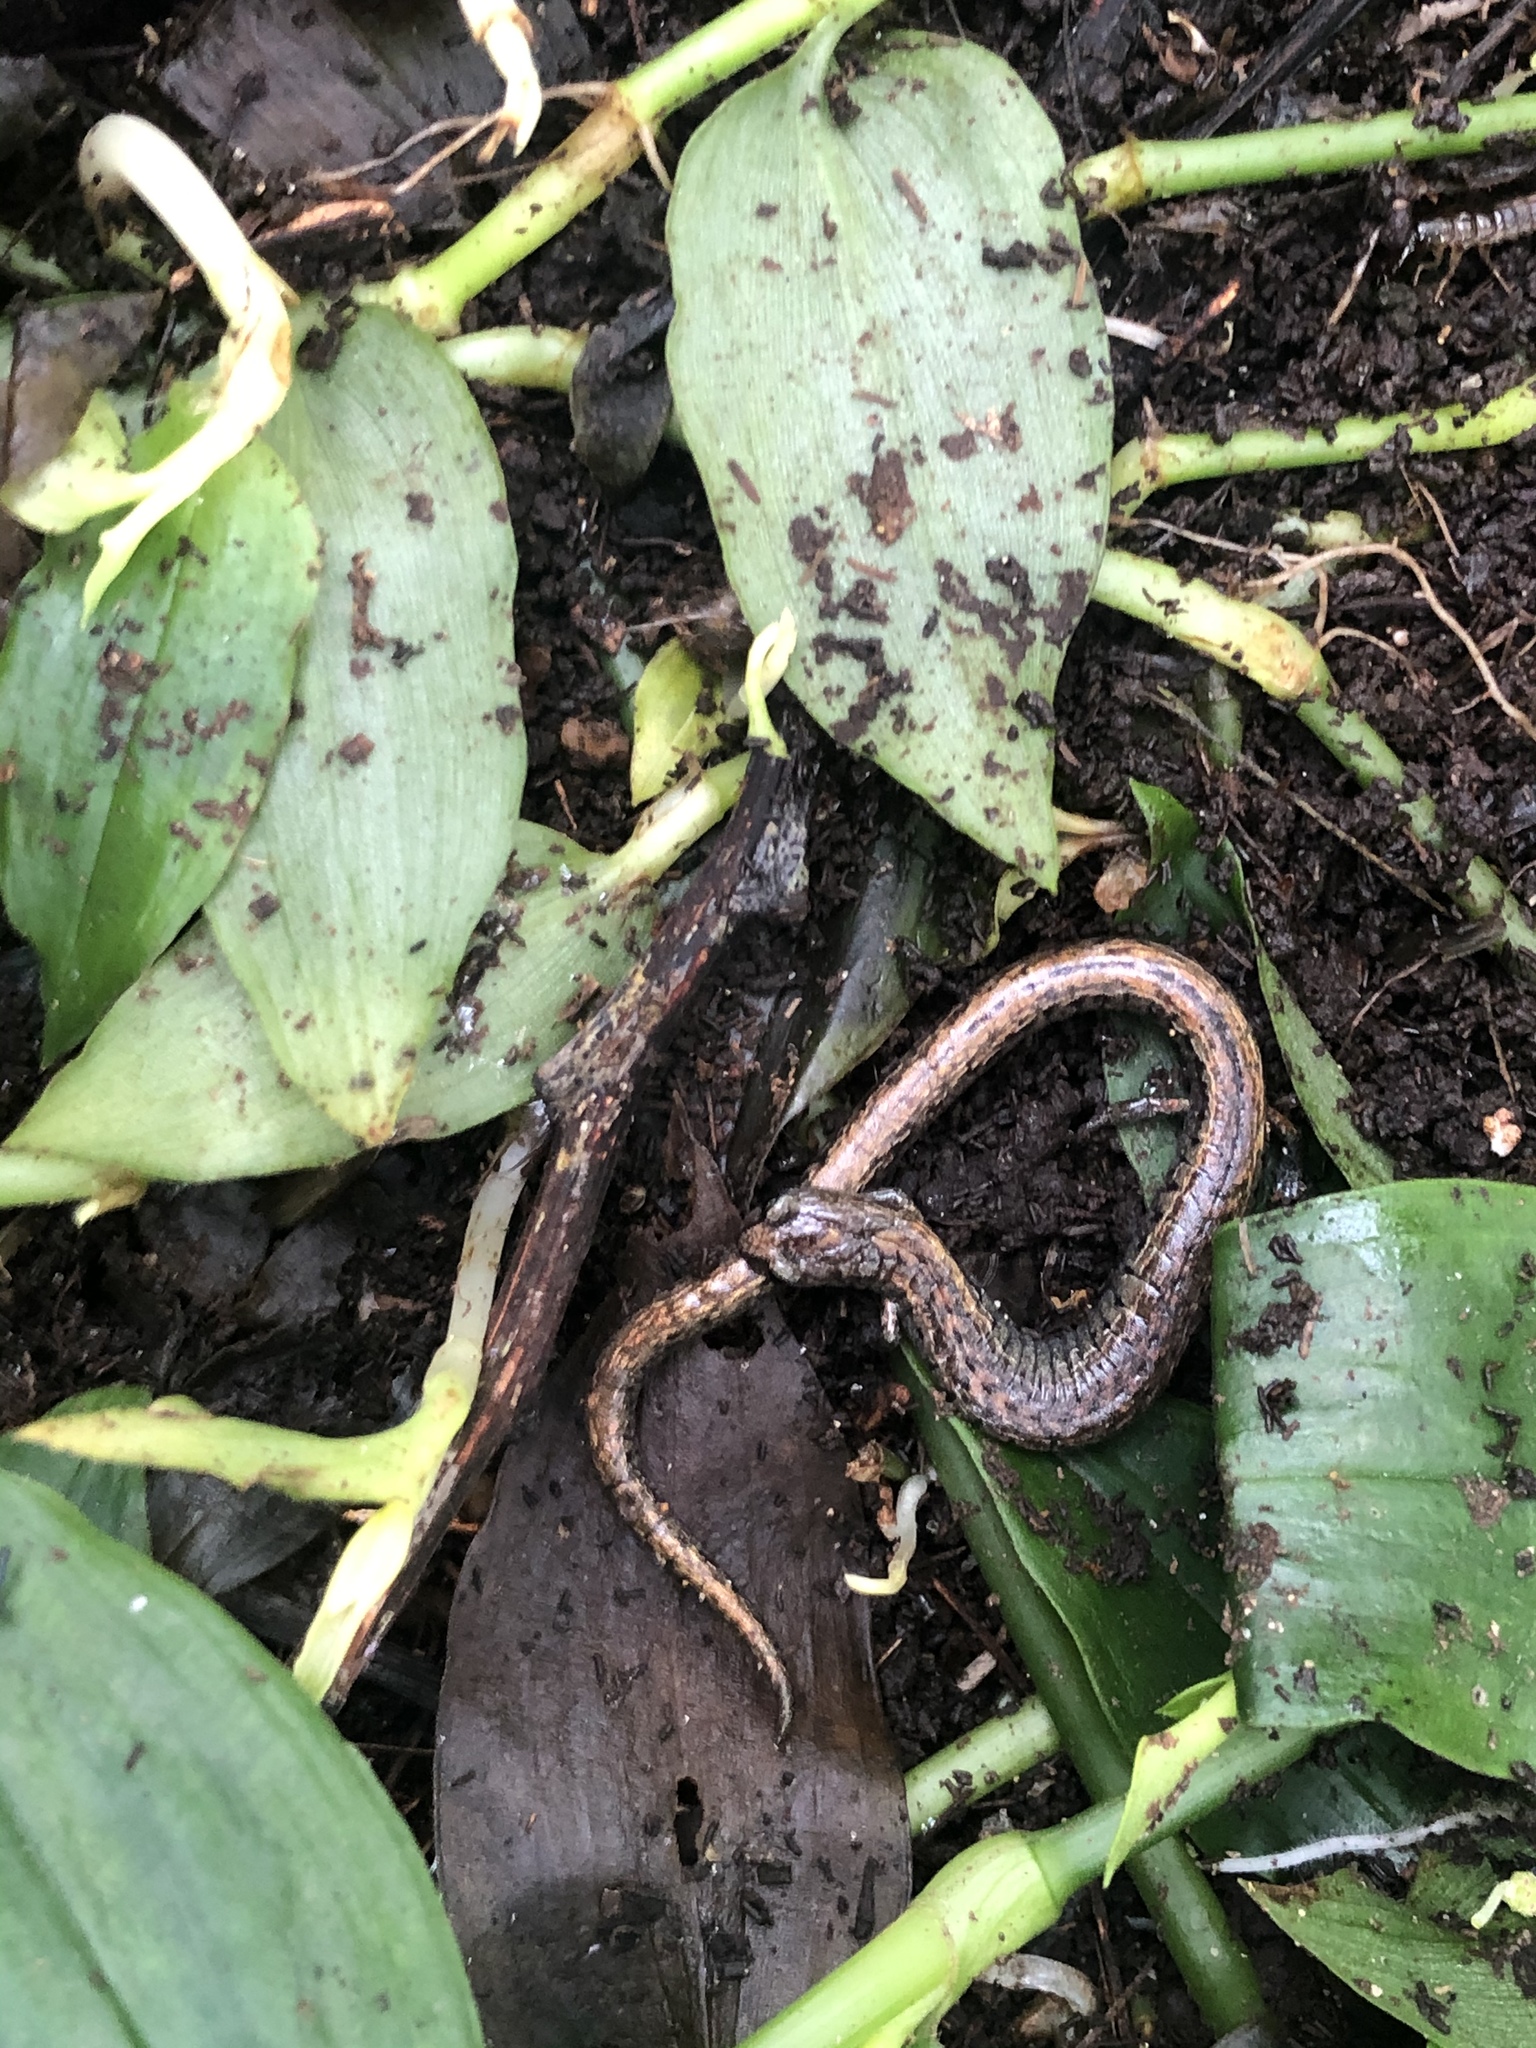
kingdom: Animalia
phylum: Chordata
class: Amphibia
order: Caudata
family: Plethodontidae
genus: Batrachoseps
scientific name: Batrachoseps attenuatus
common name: California slender salamander
